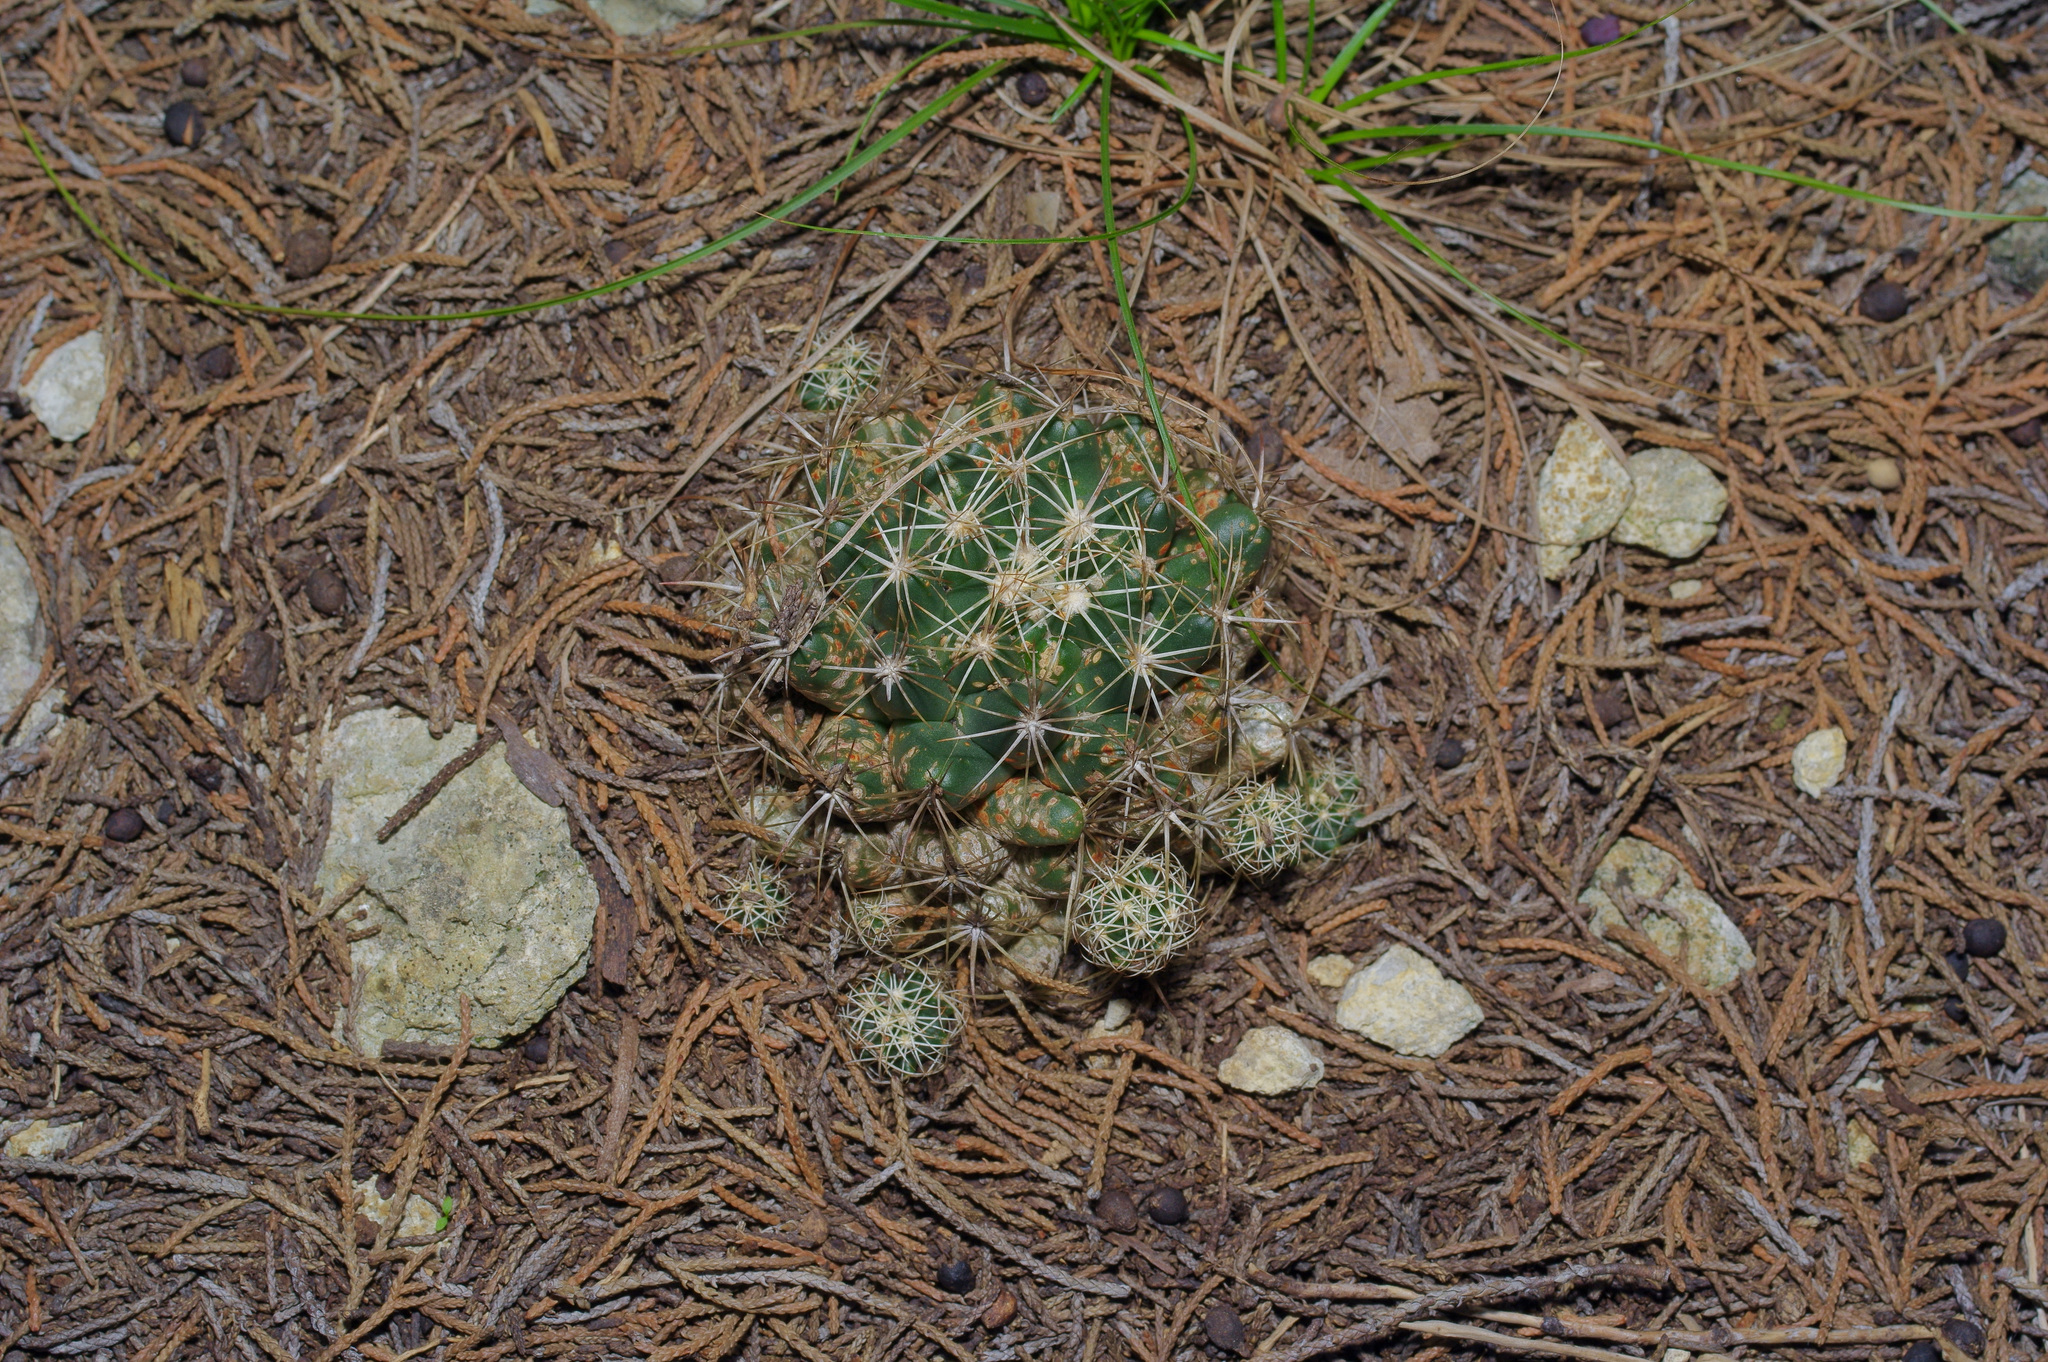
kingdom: Plantae
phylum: Tracheophyta
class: Magnoliopsida
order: Caryophyllales
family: Cactaceae
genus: Coryphantha
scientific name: Coryphantha sulcata
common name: Finger cactus
